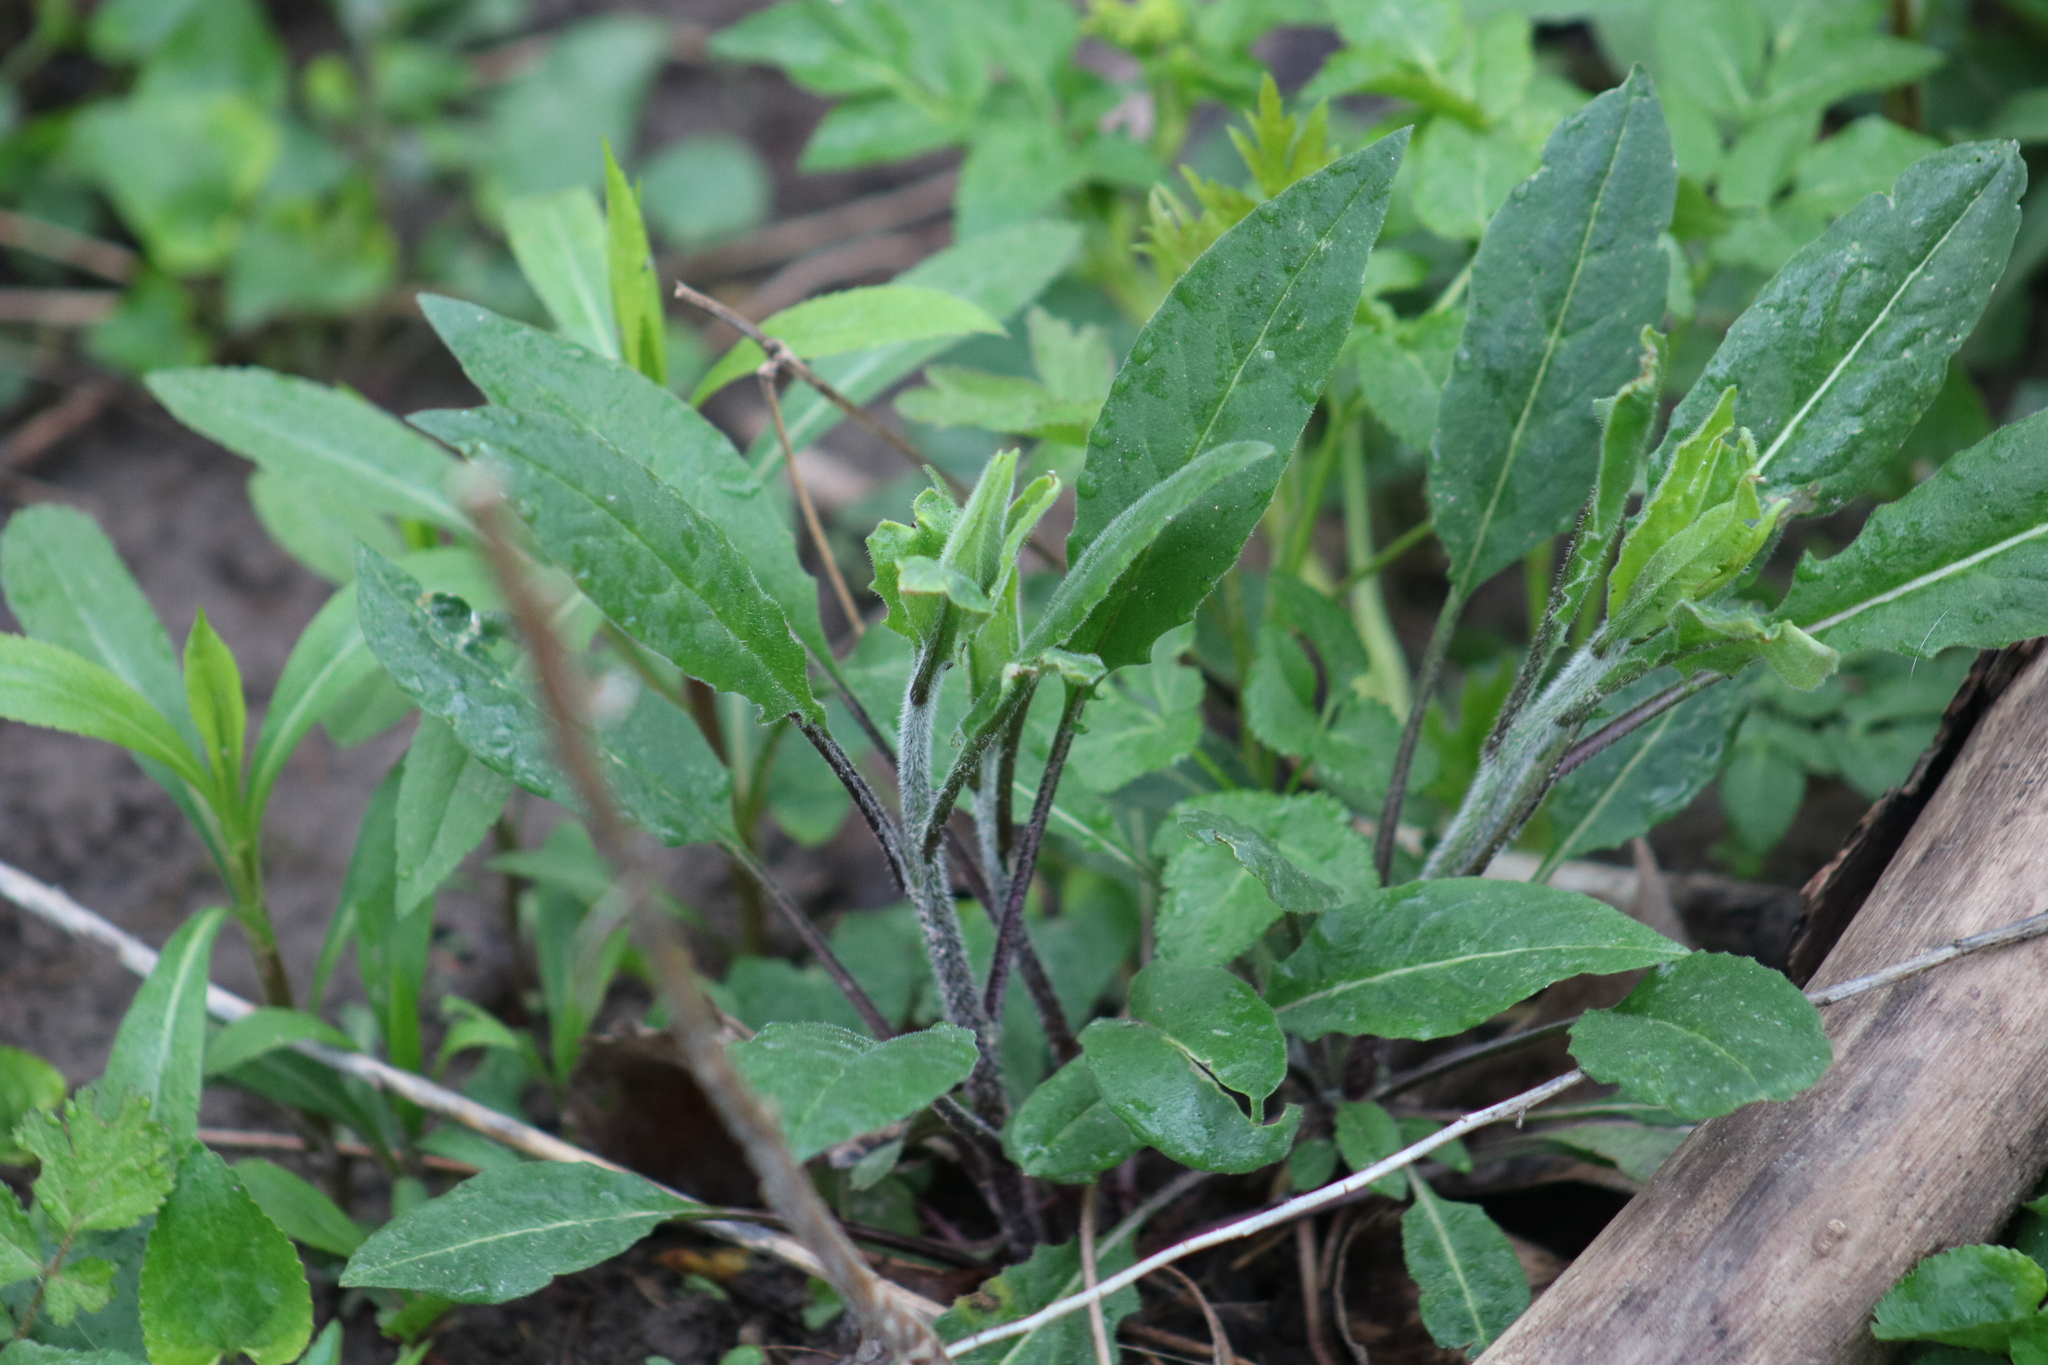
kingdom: Plantae
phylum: Tracheophyta
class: Magnoliopsida
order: Brassicales
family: Brassicaceae
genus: Hesperis
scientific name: Hesperis matronalis
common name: Dame's-violet
